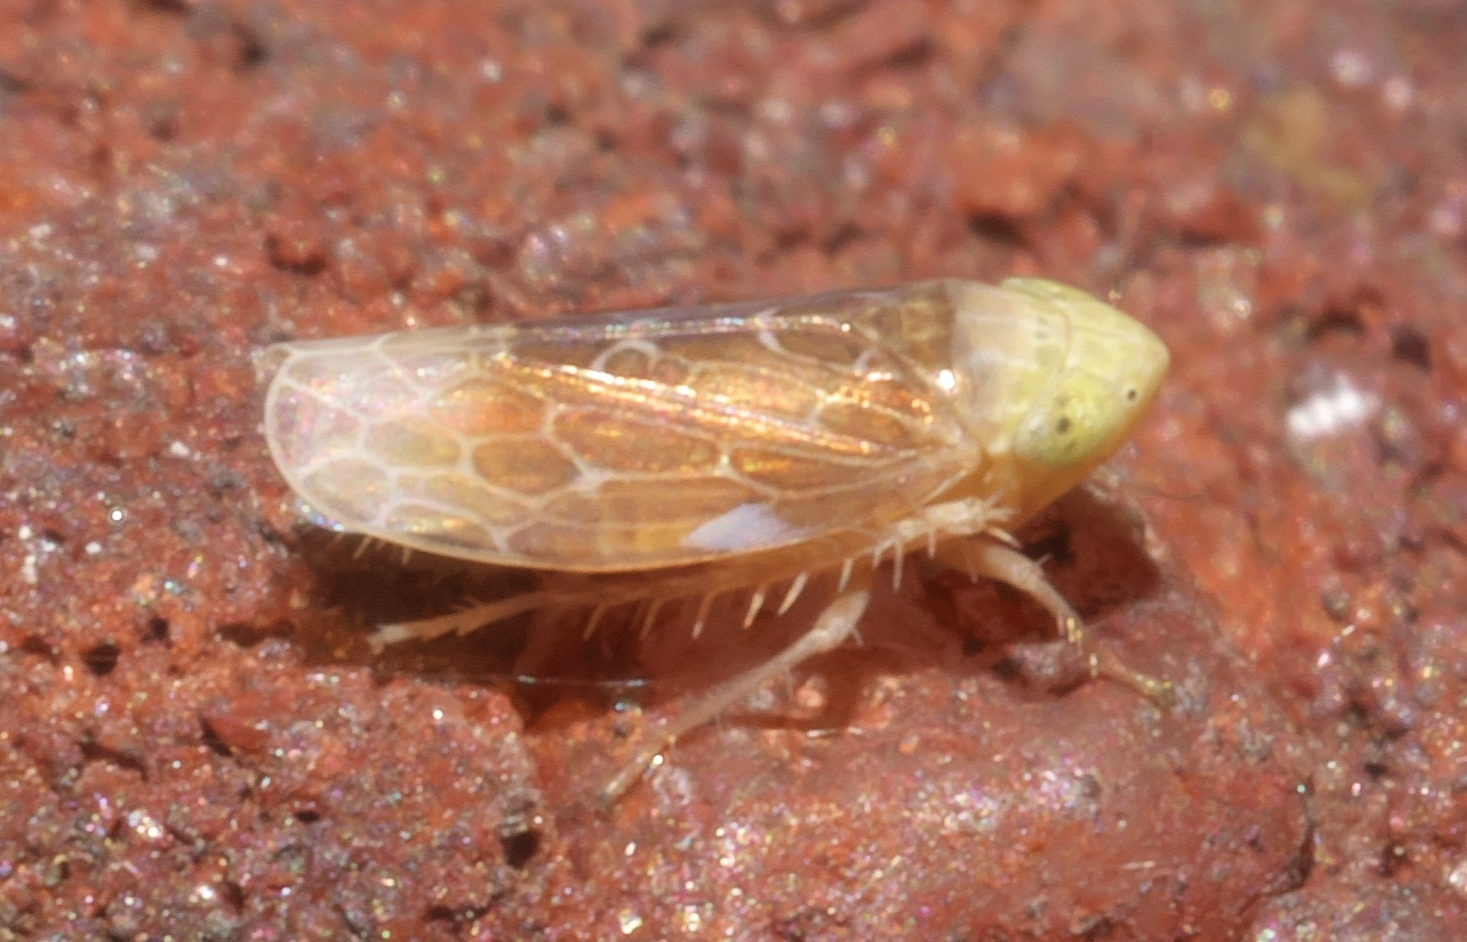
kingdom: Animalia
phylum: Arthropoda
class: Insecta
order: Hemiptera
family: Cicadellidae
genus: Polyamia
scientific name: Polyamia apicata
